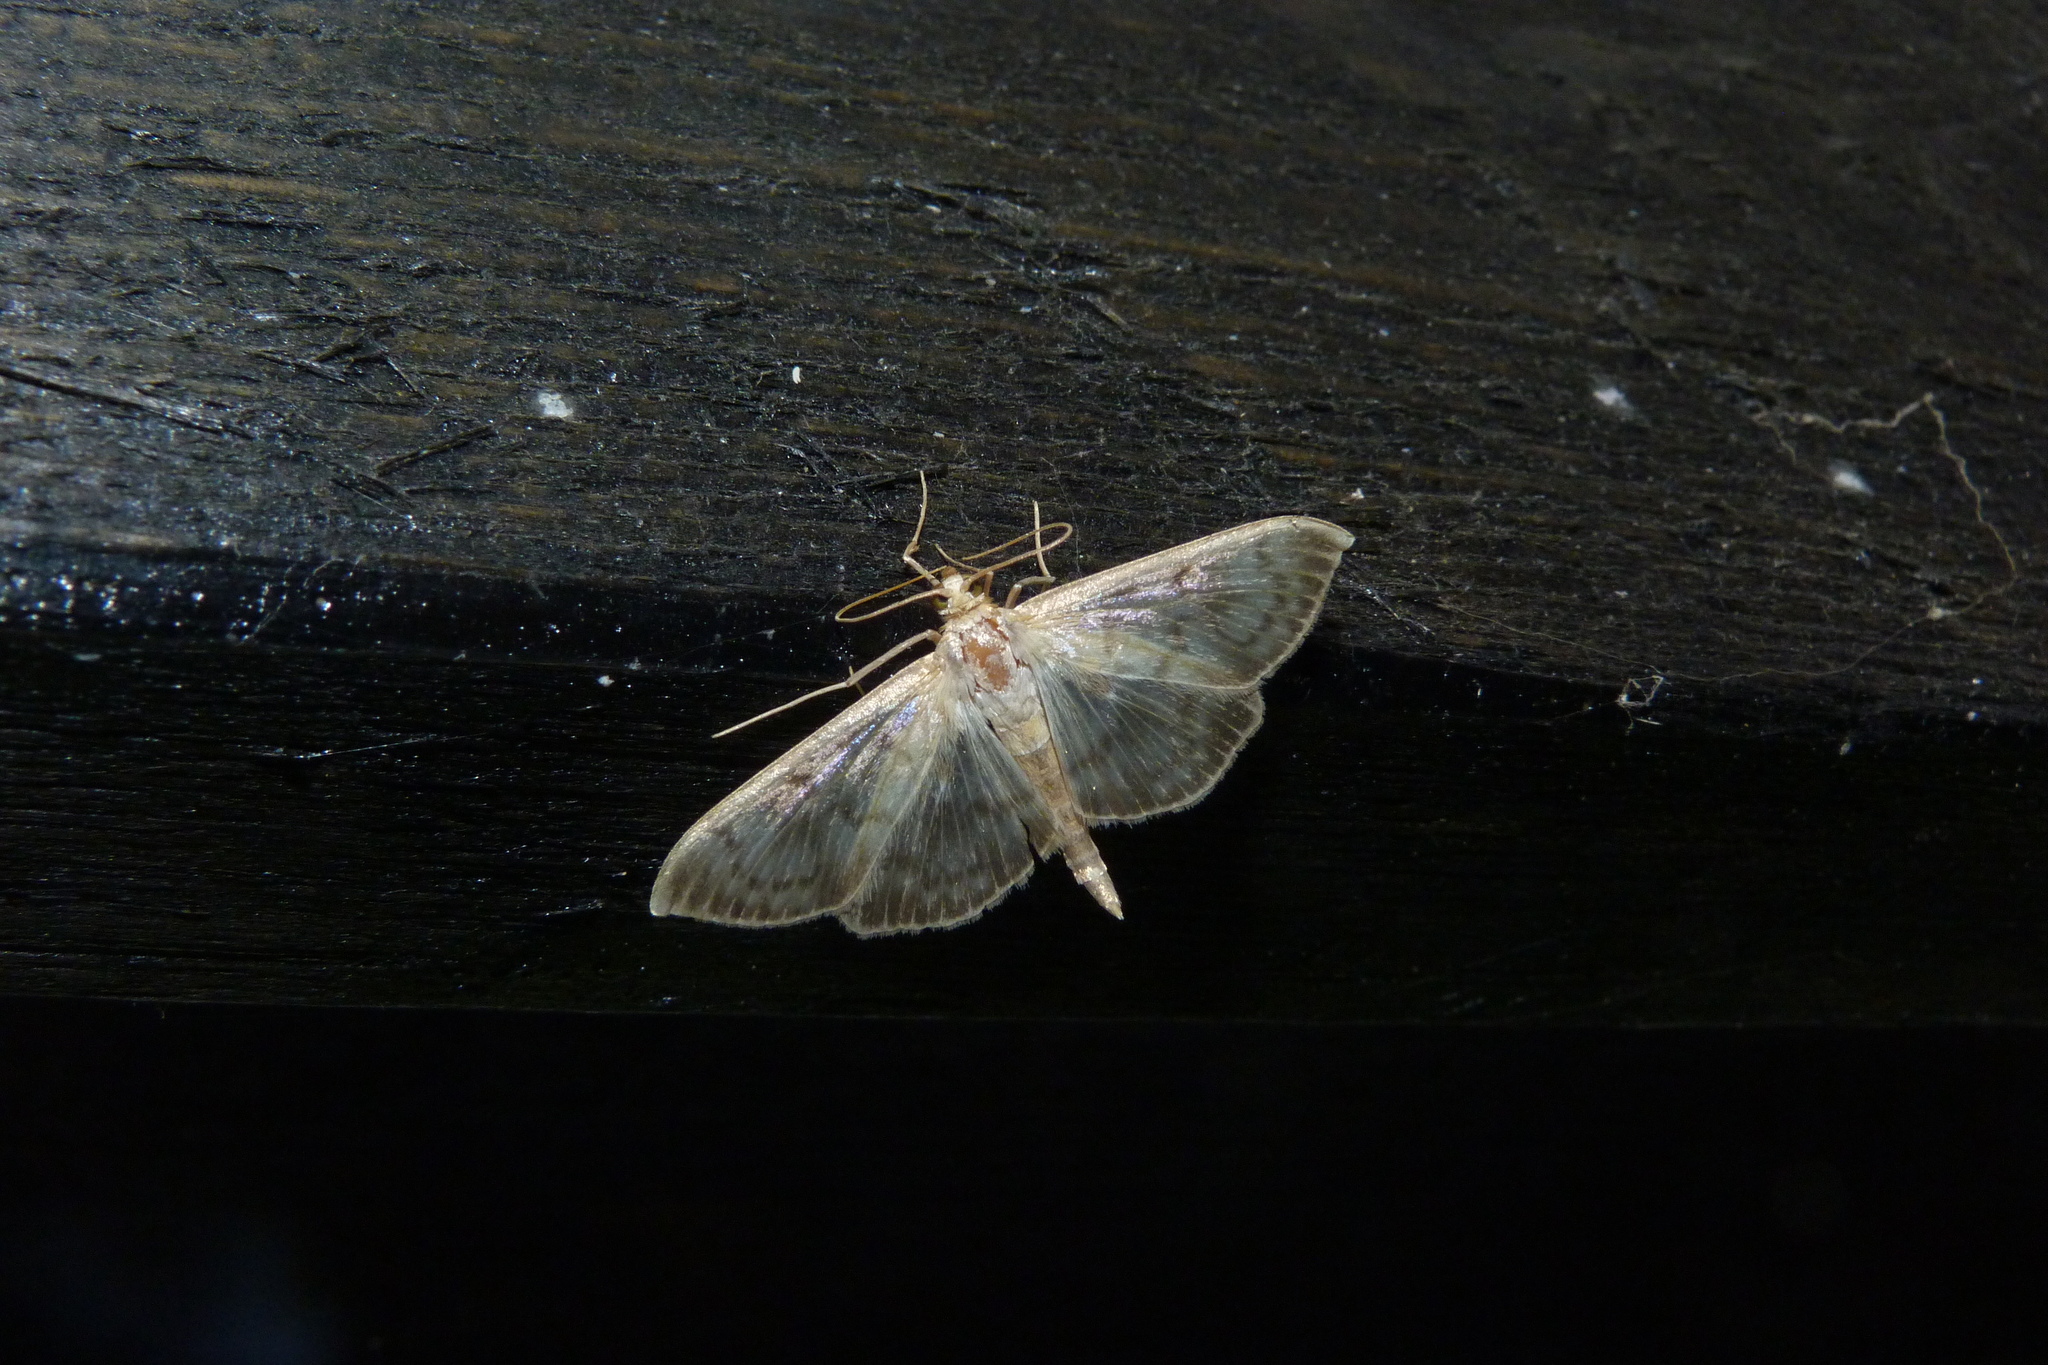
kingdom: Animalia
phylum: Arthropoda
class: Insecta
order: Lepidoptera
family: Crambidae
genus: Patania
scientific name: Patania ruralis
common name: Mother of pearl
